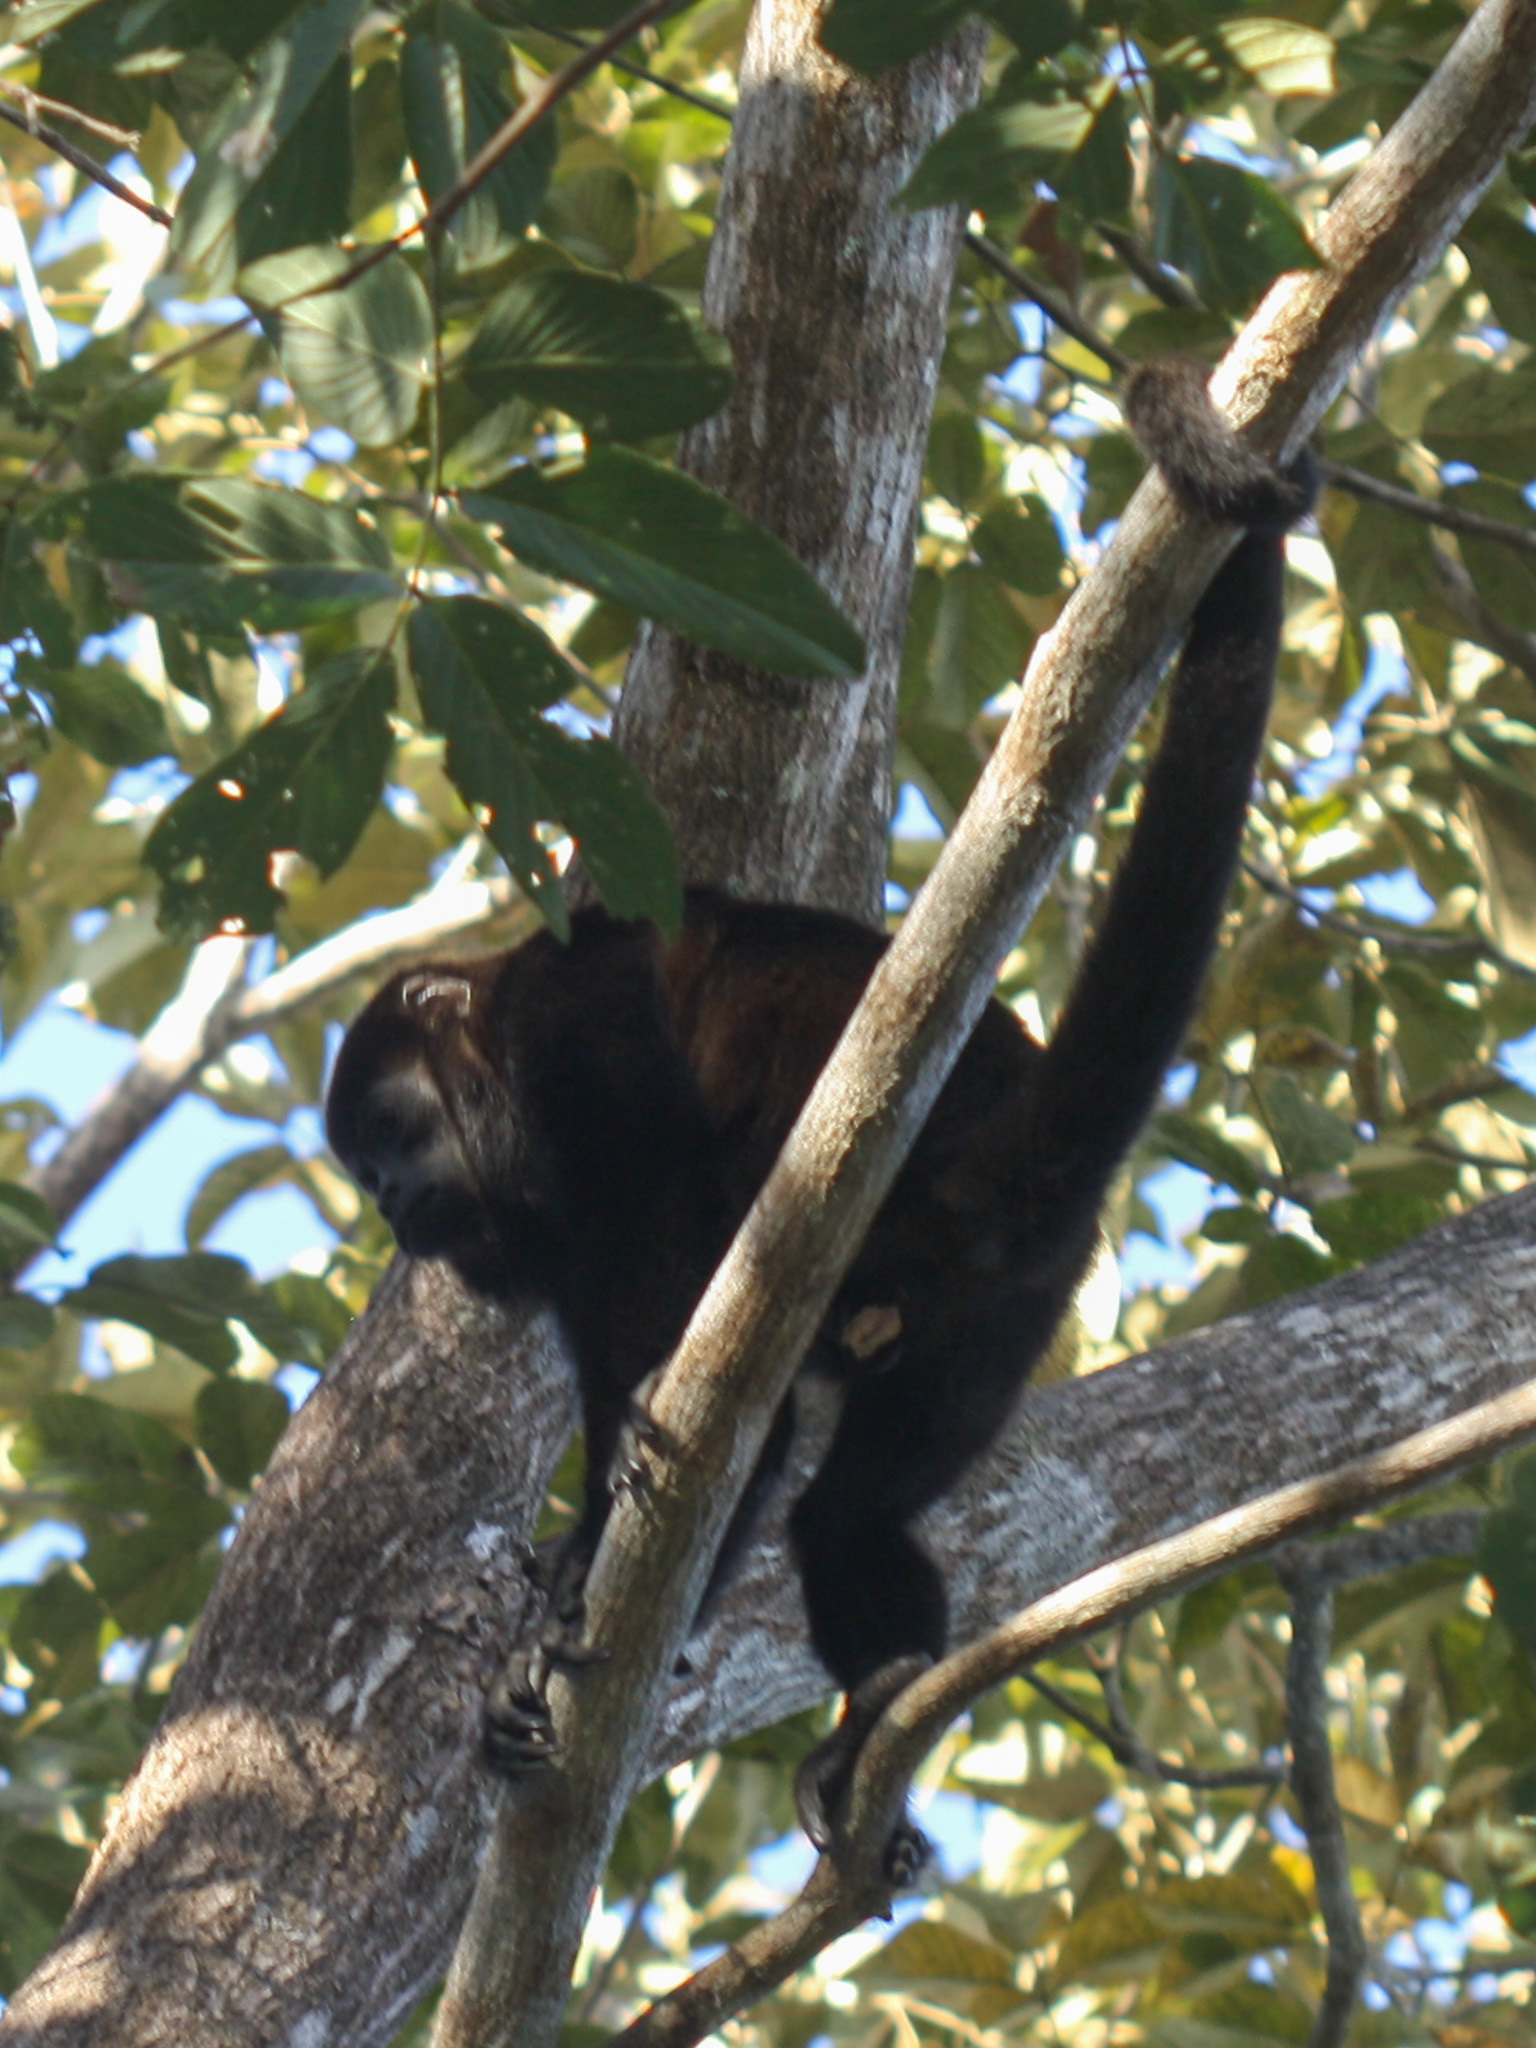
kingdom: Animalia
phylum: Chordata
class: Mammalia
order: Primates
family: Atelidae
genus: Alouatta
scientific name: Alouatta palliata
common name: Mantled howler
